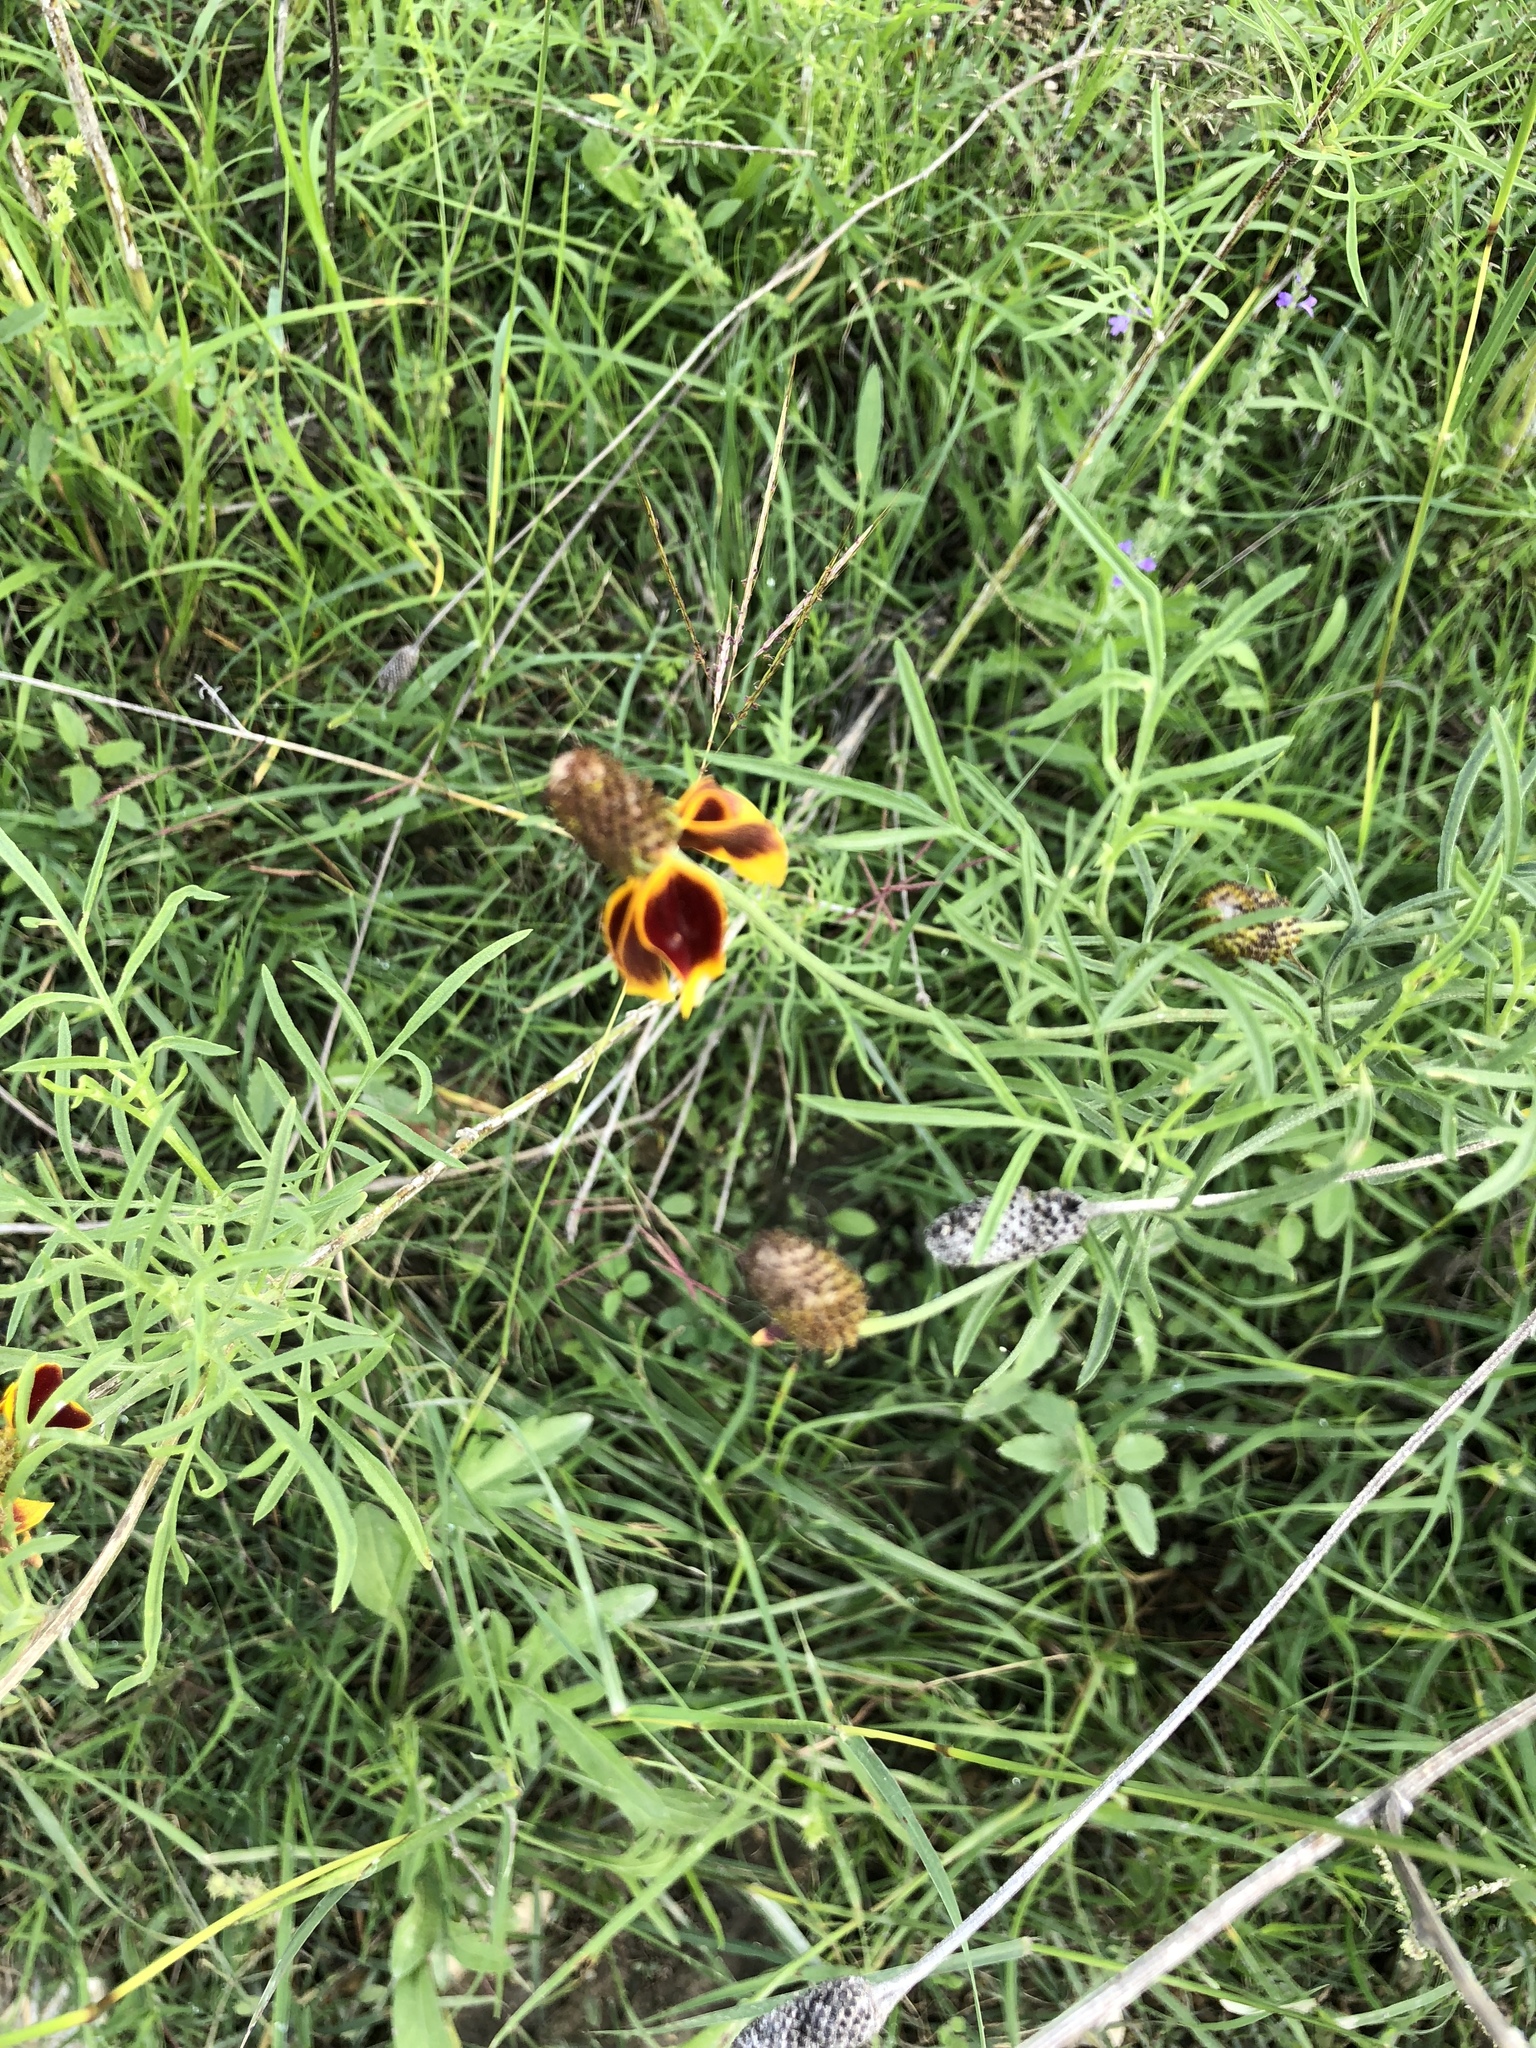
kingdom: Plantae
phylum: Tracheophyta
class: Magnoliopsida
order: Asterales
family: Asteraceae
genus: Ratibida
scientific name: Ratibida columnifera
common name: Prairie coneflower
